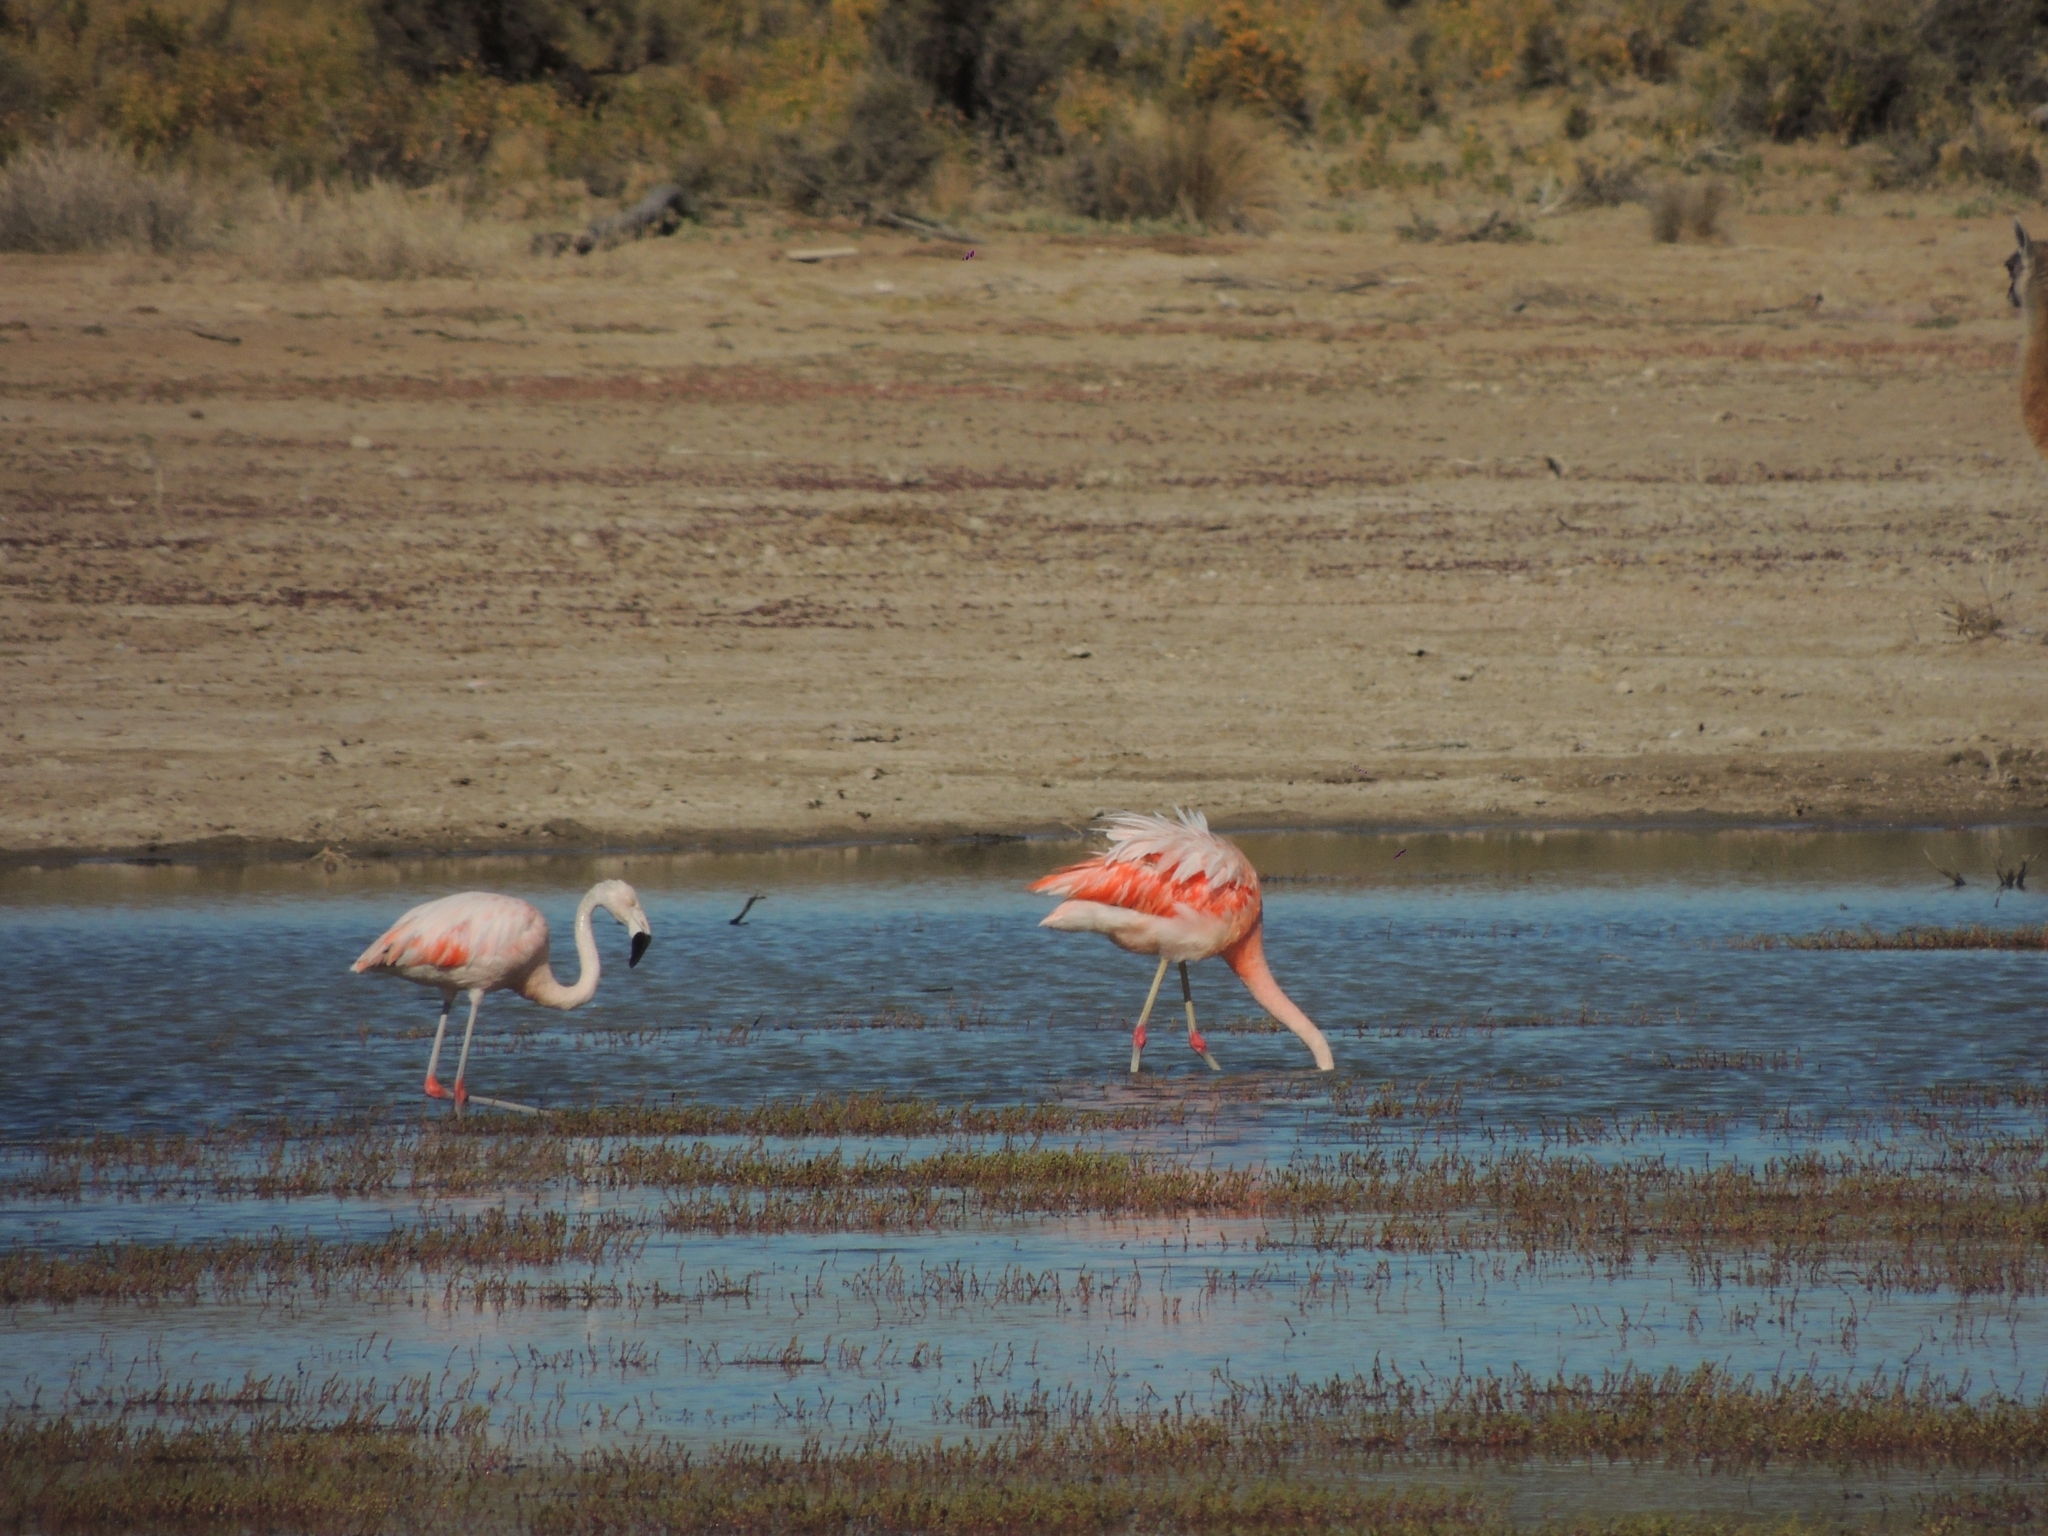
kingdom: Animalia
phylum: Chordata
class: Aves
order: Phoenicopteriformes
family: Phoenicopteridae
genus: Phoenicopterus
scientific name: Phoenicopterus chilensis
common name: Chilean flamingo
